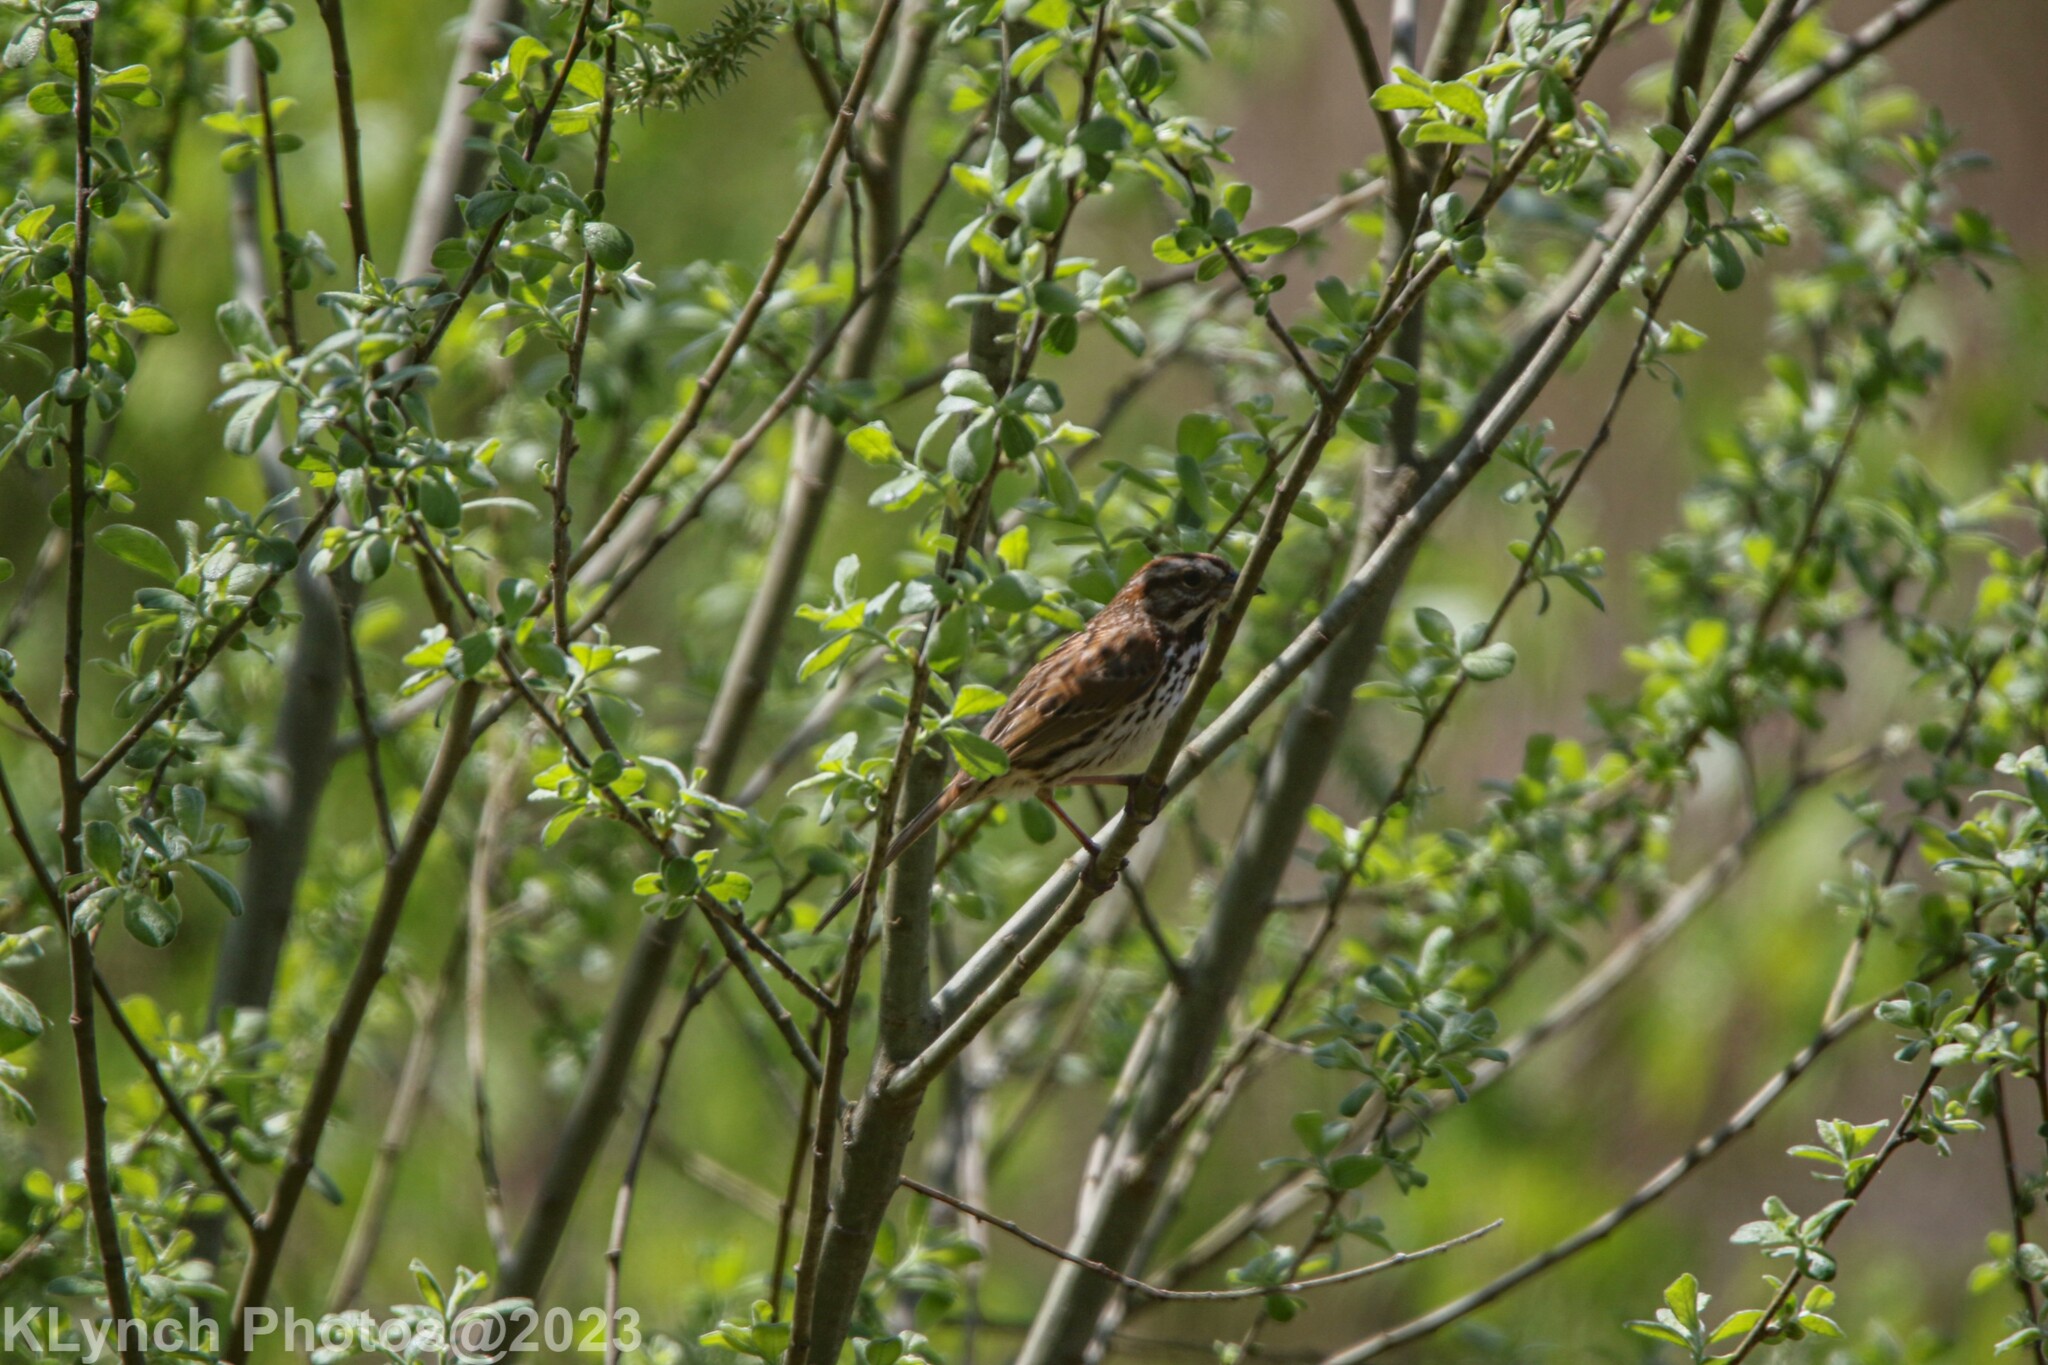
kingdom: Animalia
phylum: Chordata
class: Aves
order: Passeriformes
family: Passerellidae
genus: Melospiza
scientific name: Melospiza melodia
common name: Song sparrow
